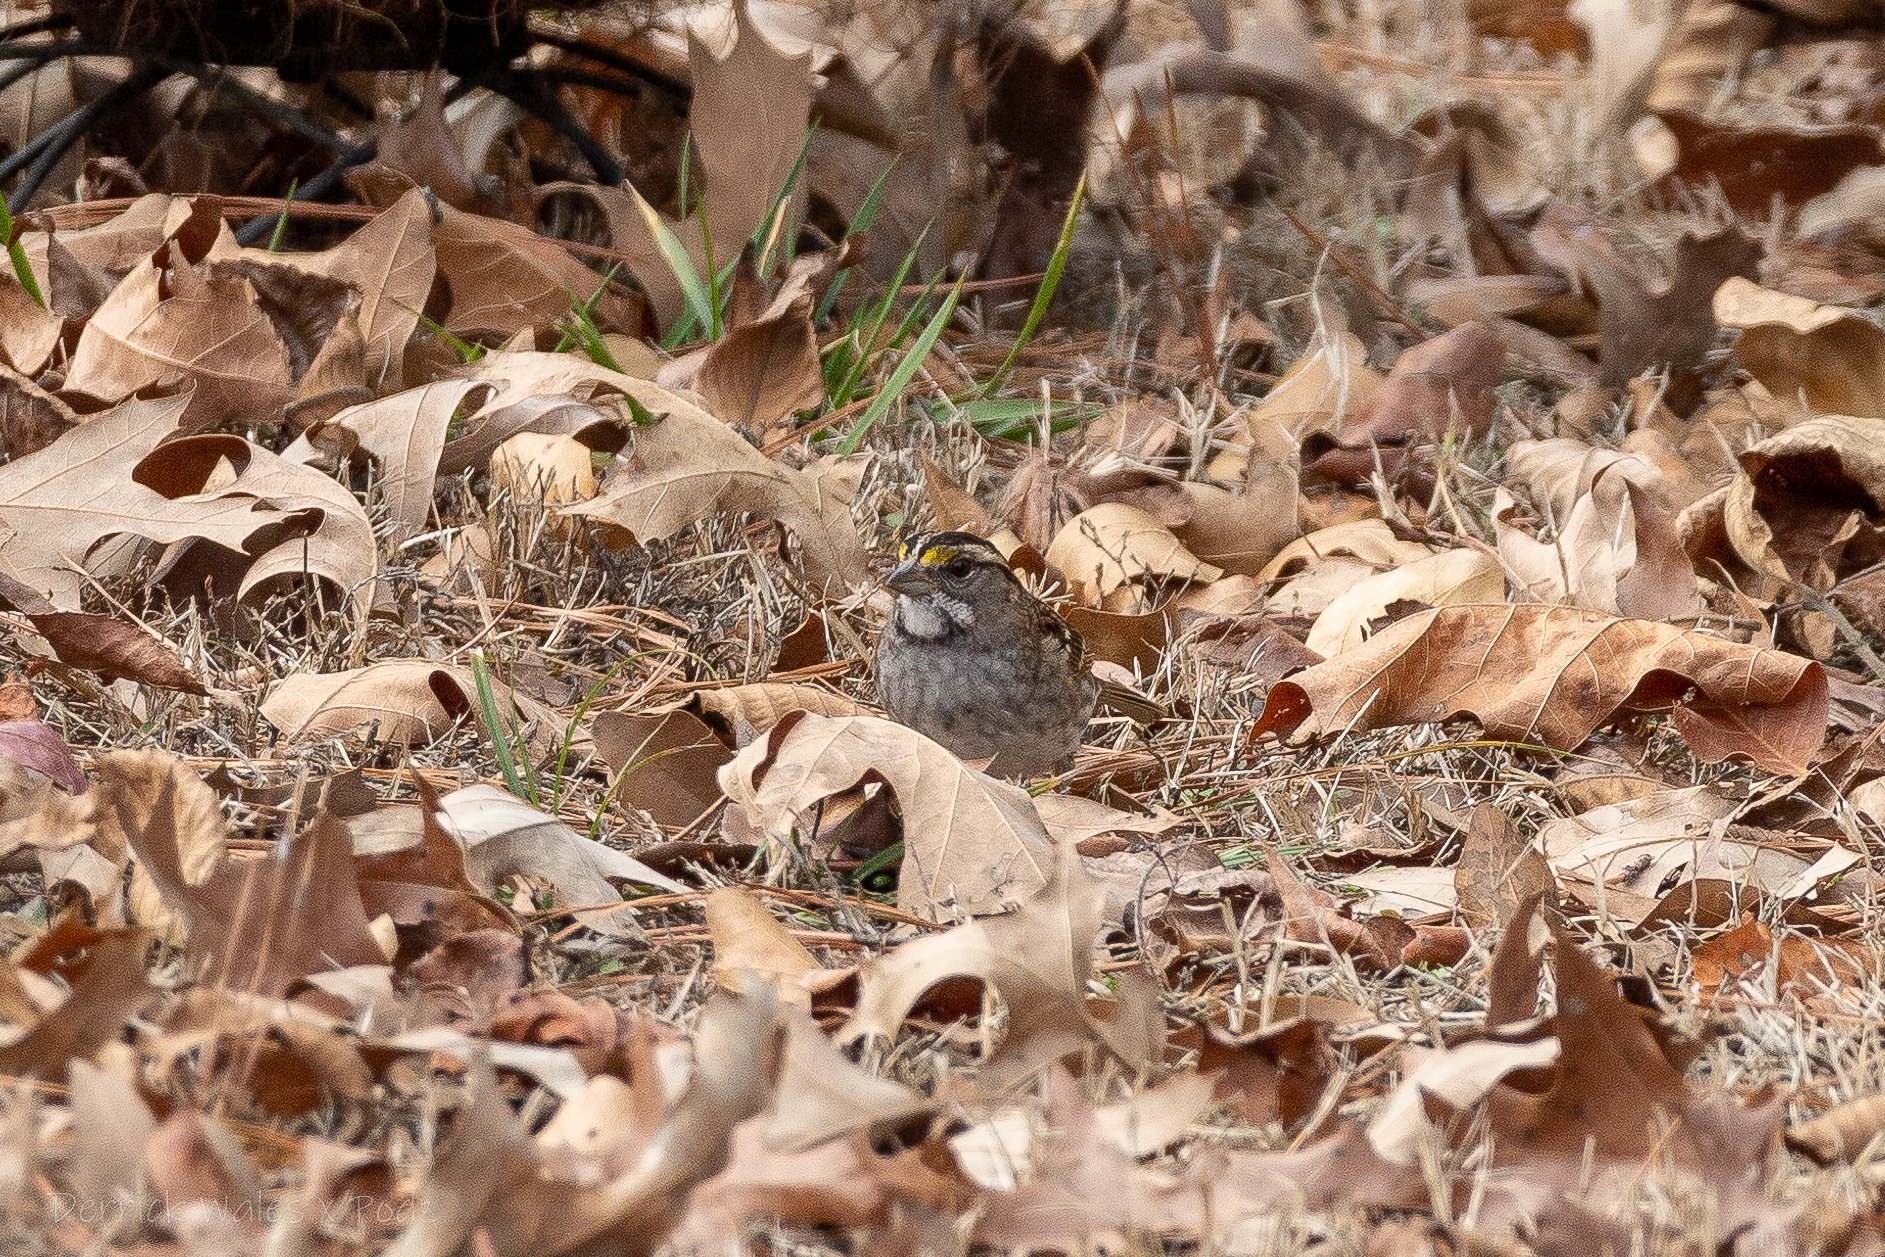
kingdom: Animalia
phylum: Chordata
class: Aves
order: Passeriformes
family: Passerellidae
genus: Zonotrichia
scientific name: Zonotrichia albicollis
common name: White-throated sparrow
